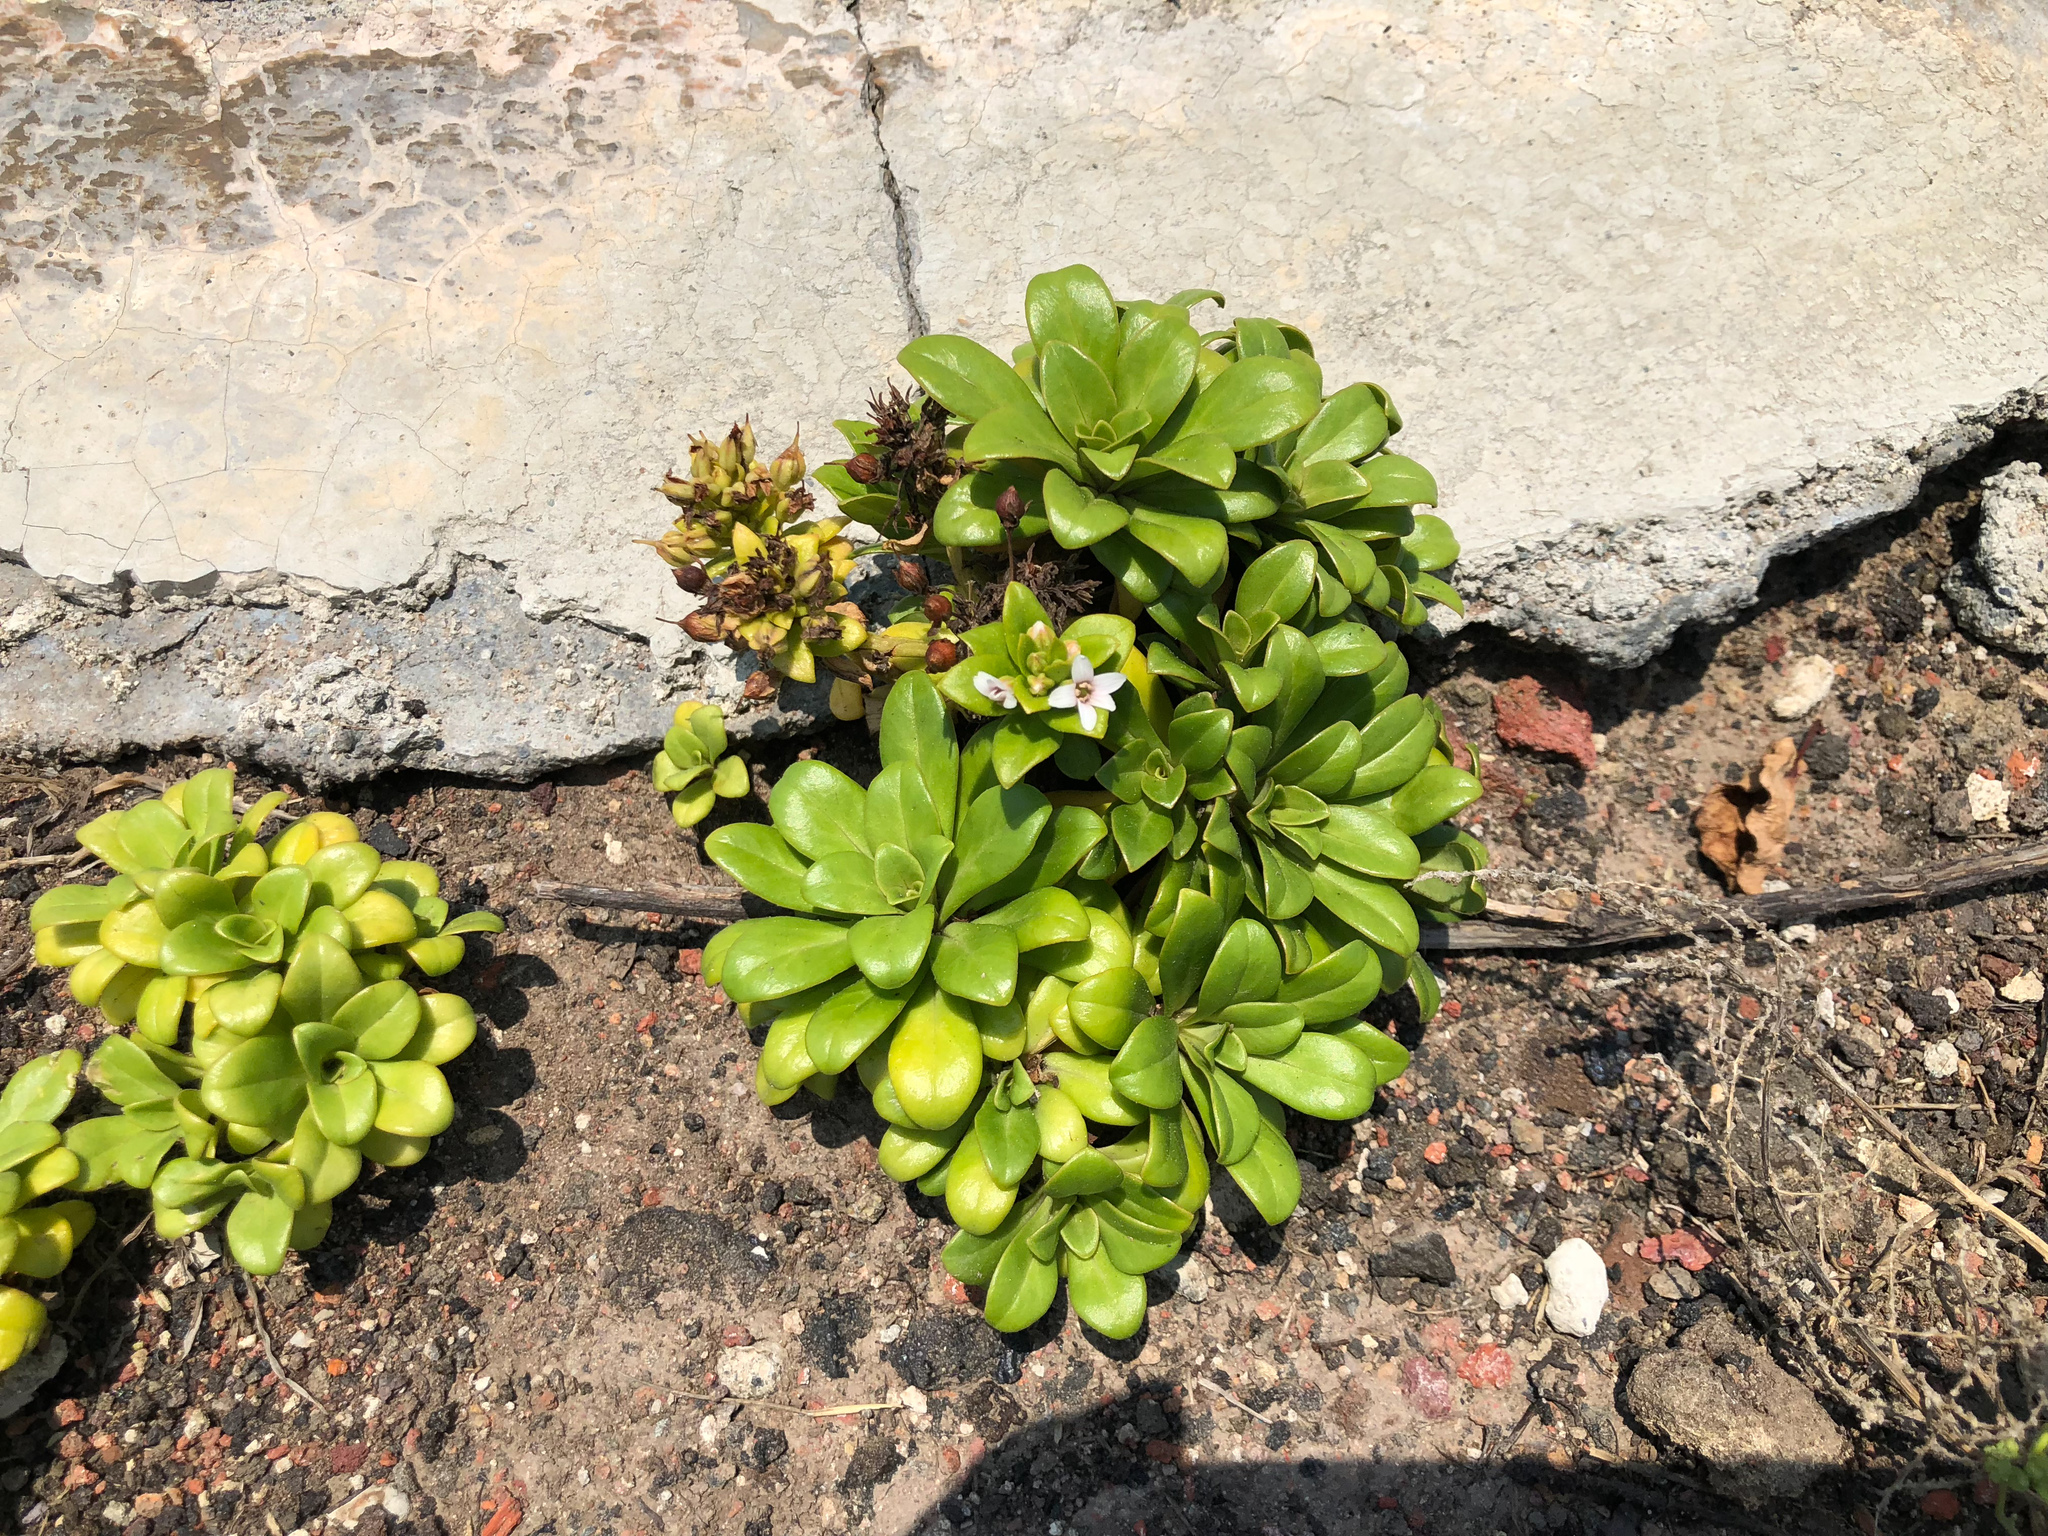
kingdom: Plantae
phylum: Tracheophyta
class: Magnoliopsida
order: Ericales
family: Primulaceae
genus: Lysimachia
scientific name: Lysimachia mauritiana
